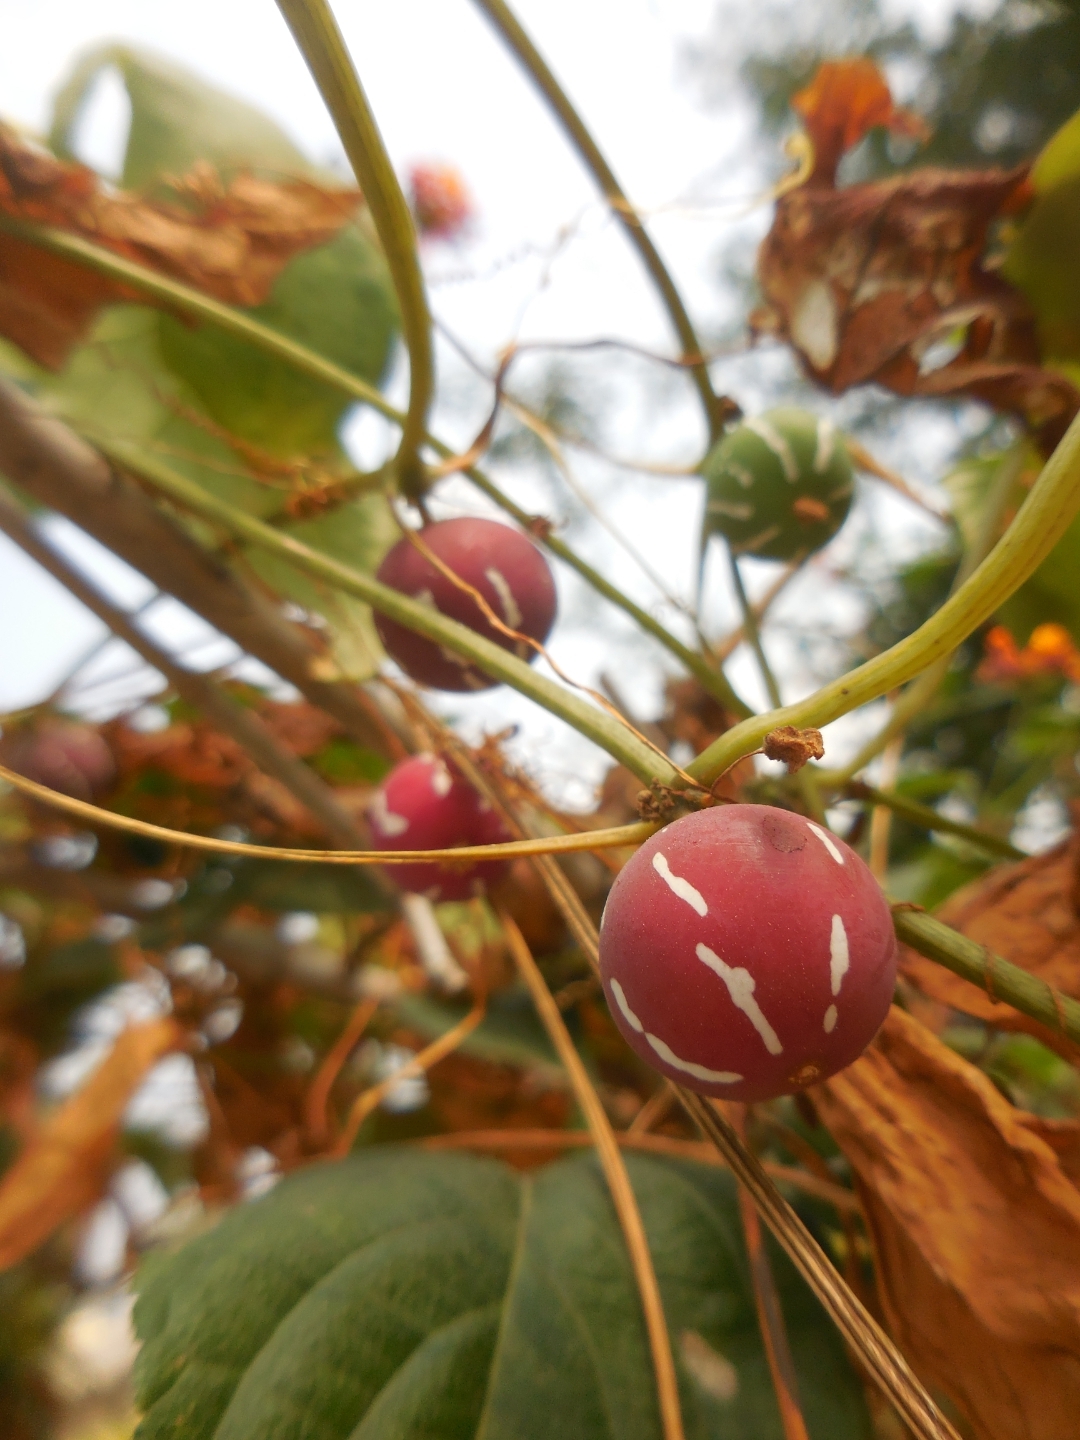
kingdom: Plantae
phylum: Tracheophyta
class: Magnoliopsida
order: Cucurbitales
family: Cucurbitaceae
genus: Diplocyclos
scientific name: Diplocyclos palmatus
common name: Striped-cucumber
